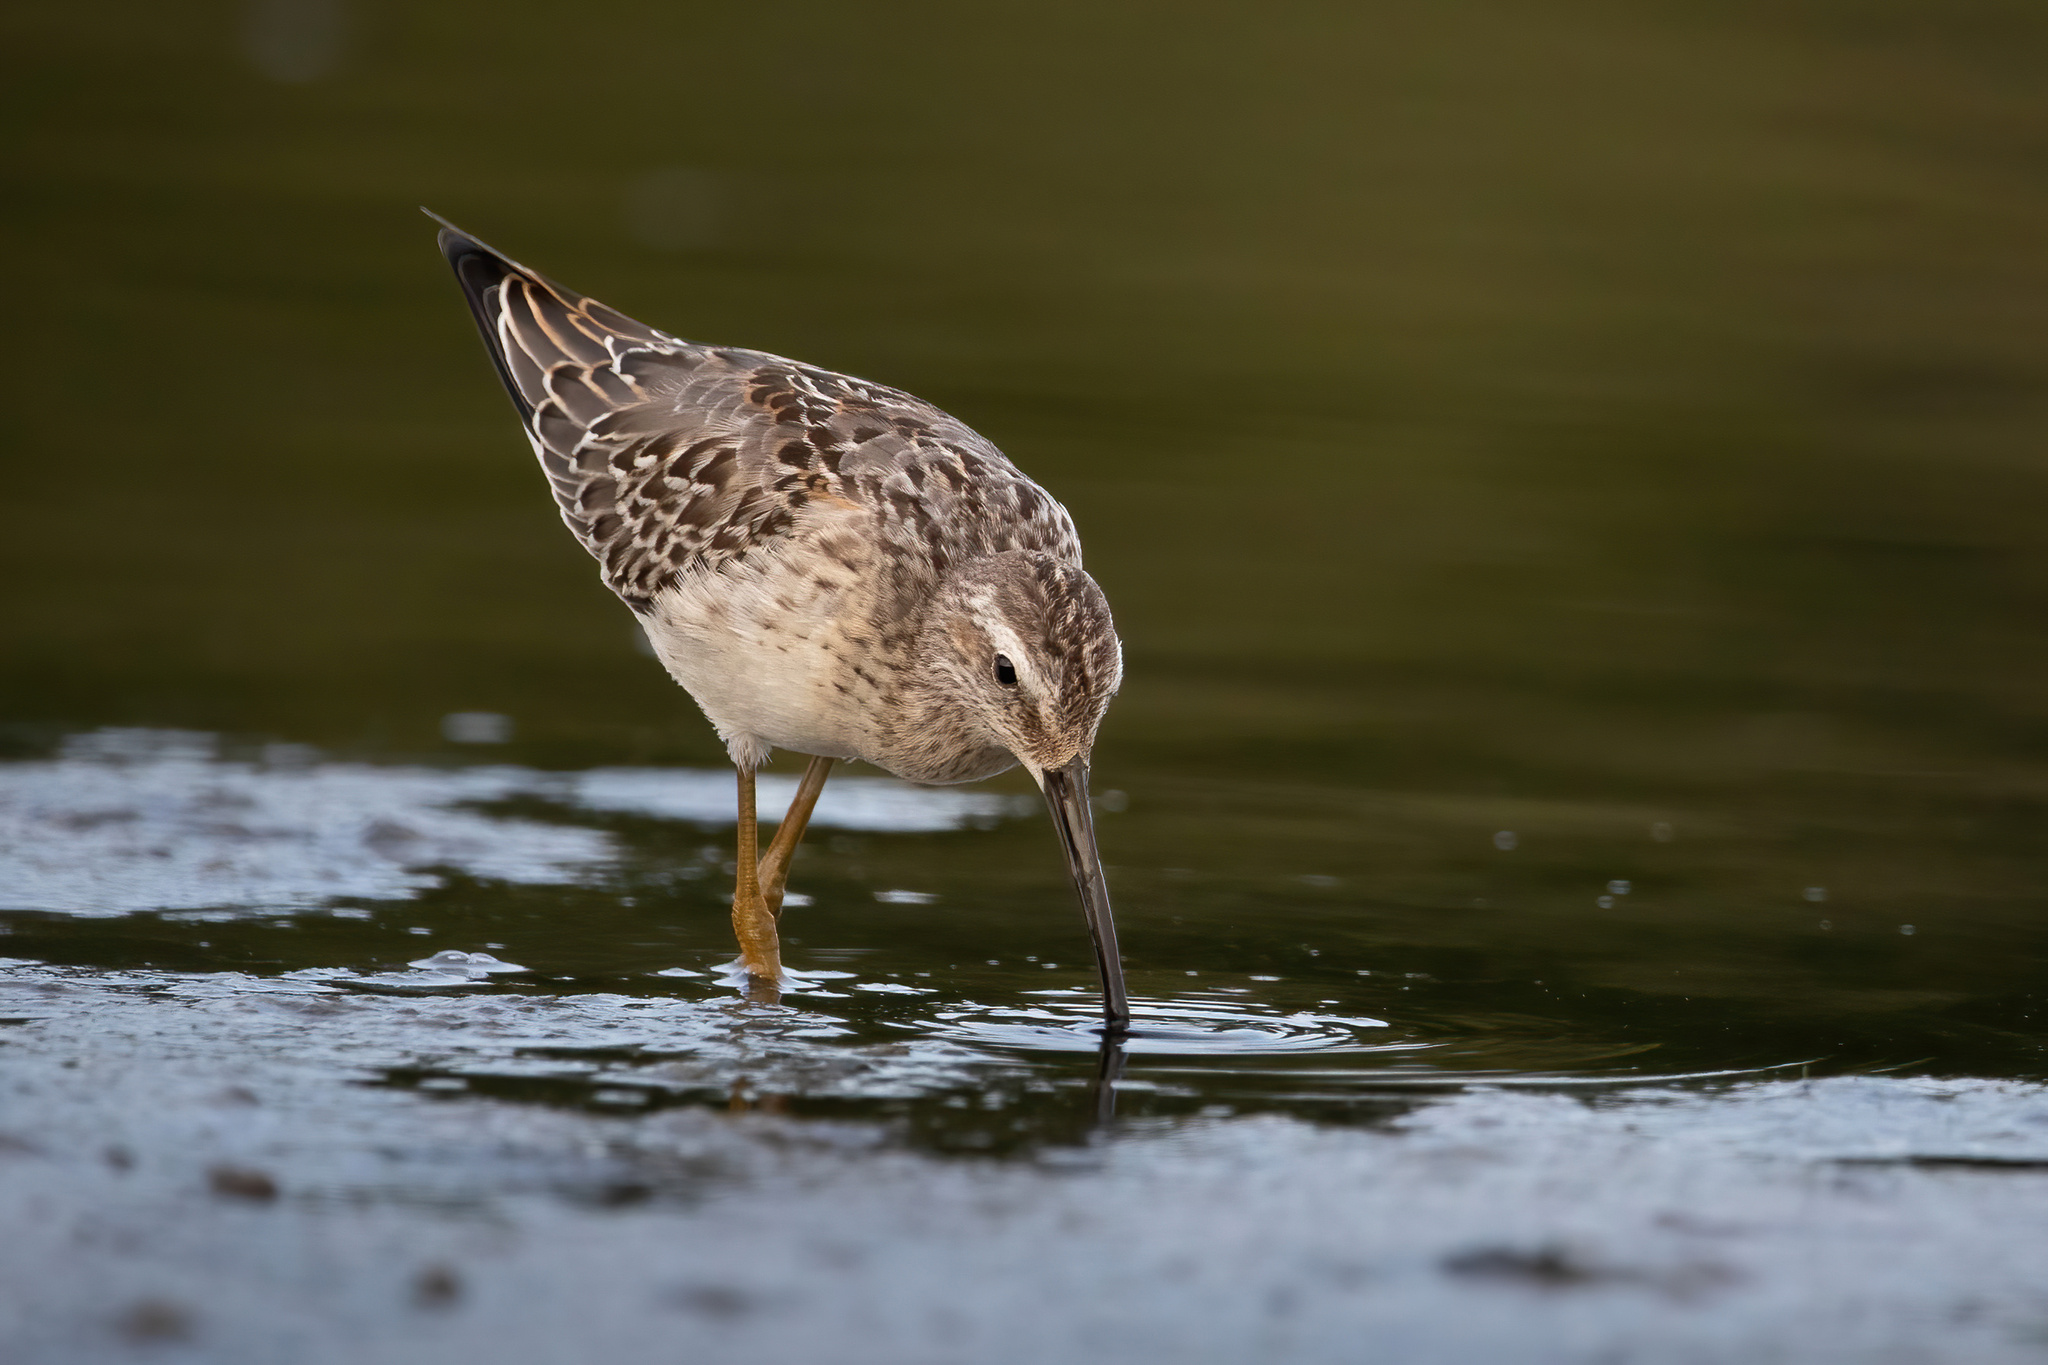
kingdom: Animalia
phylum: Chordata
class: Aves
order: Charadriiformes
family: Scolopacidae
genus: Calidris
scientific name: Calidris himantopus
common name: Stilt sandpiper
